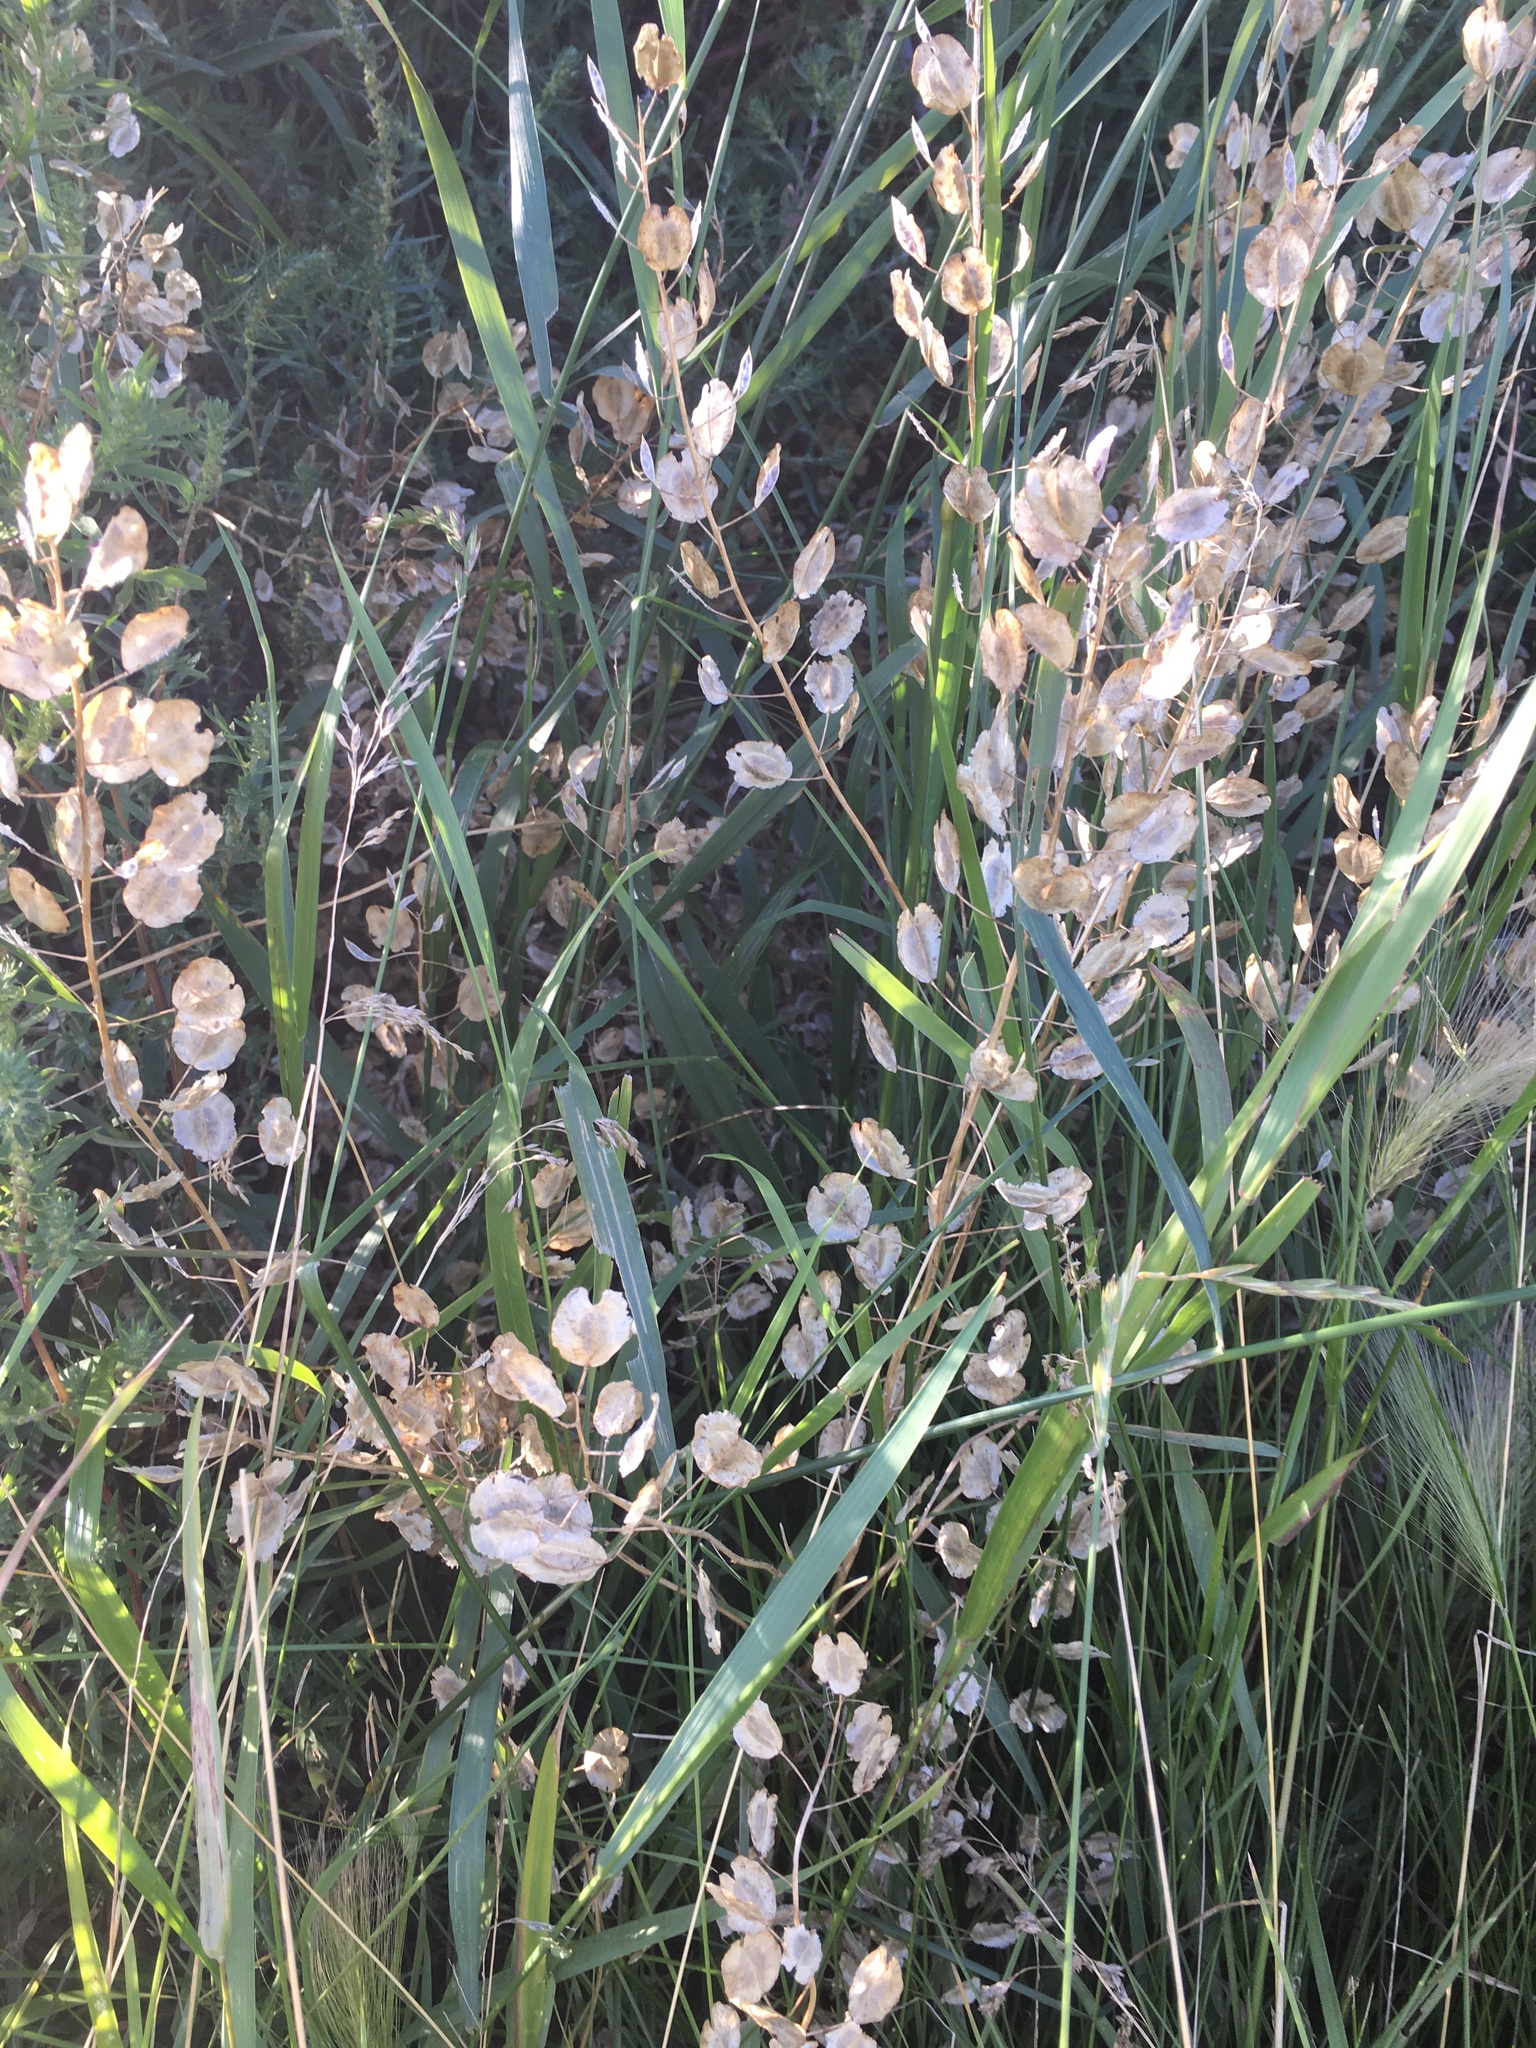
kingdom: Plantae
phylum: Tracheophyta
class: Magnoliopsida
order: Brassicales
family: Brassicaceae
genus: Thlaspi
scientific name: Thlaspi arvense
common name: Field pennycress
